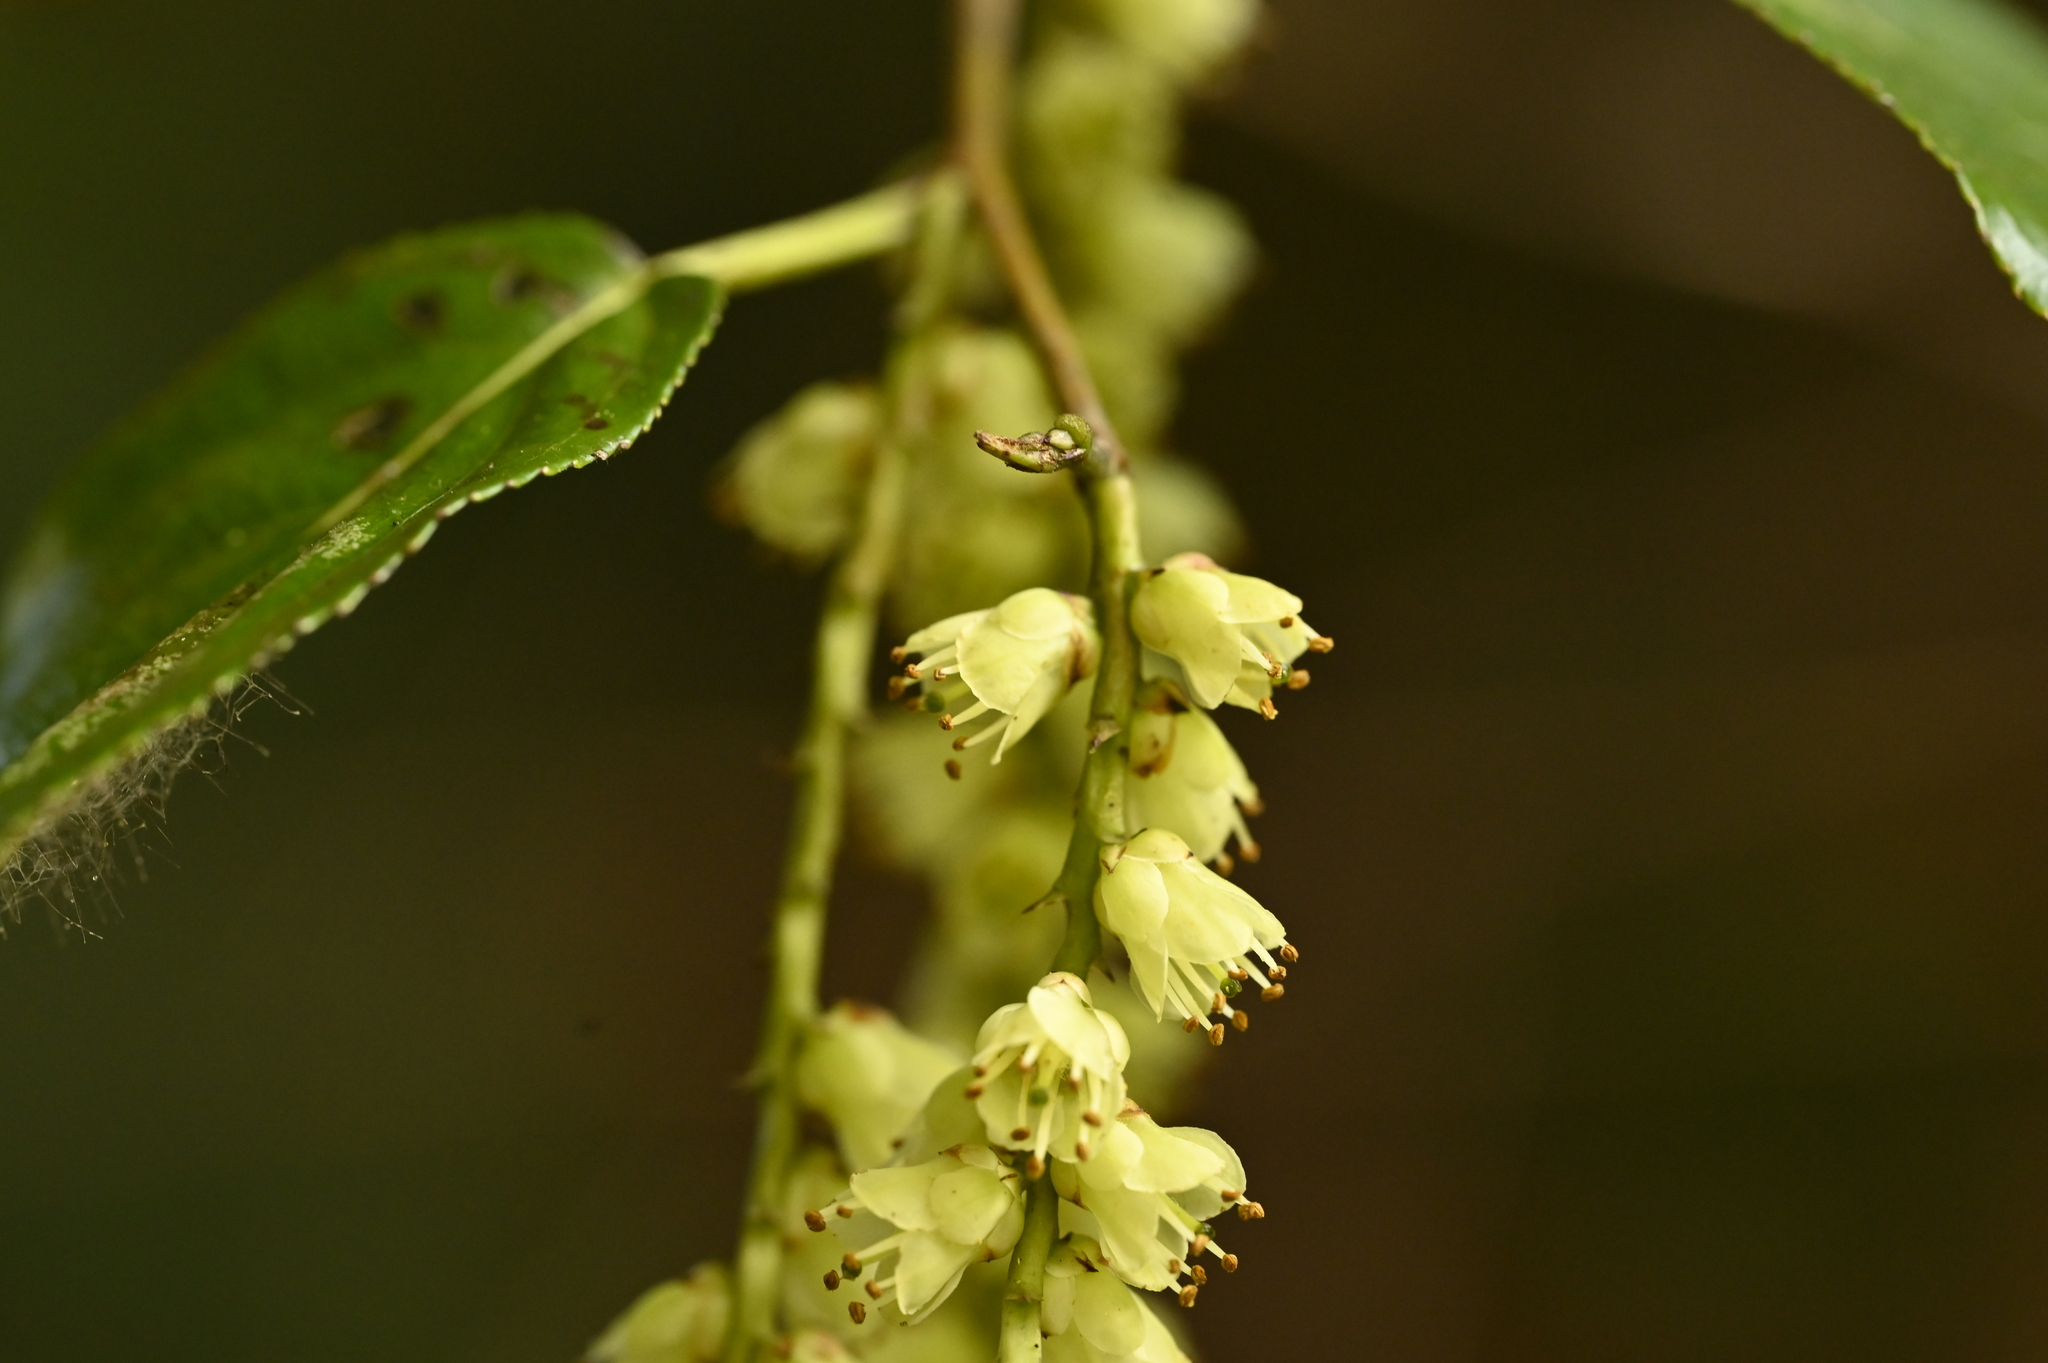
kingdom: Plantae
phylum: Tracheophyta
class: Magnoliopsida
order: Crossosomatales
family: Stachyuraceae
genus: Stachyurus
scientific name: Stachyurus himalaicus
